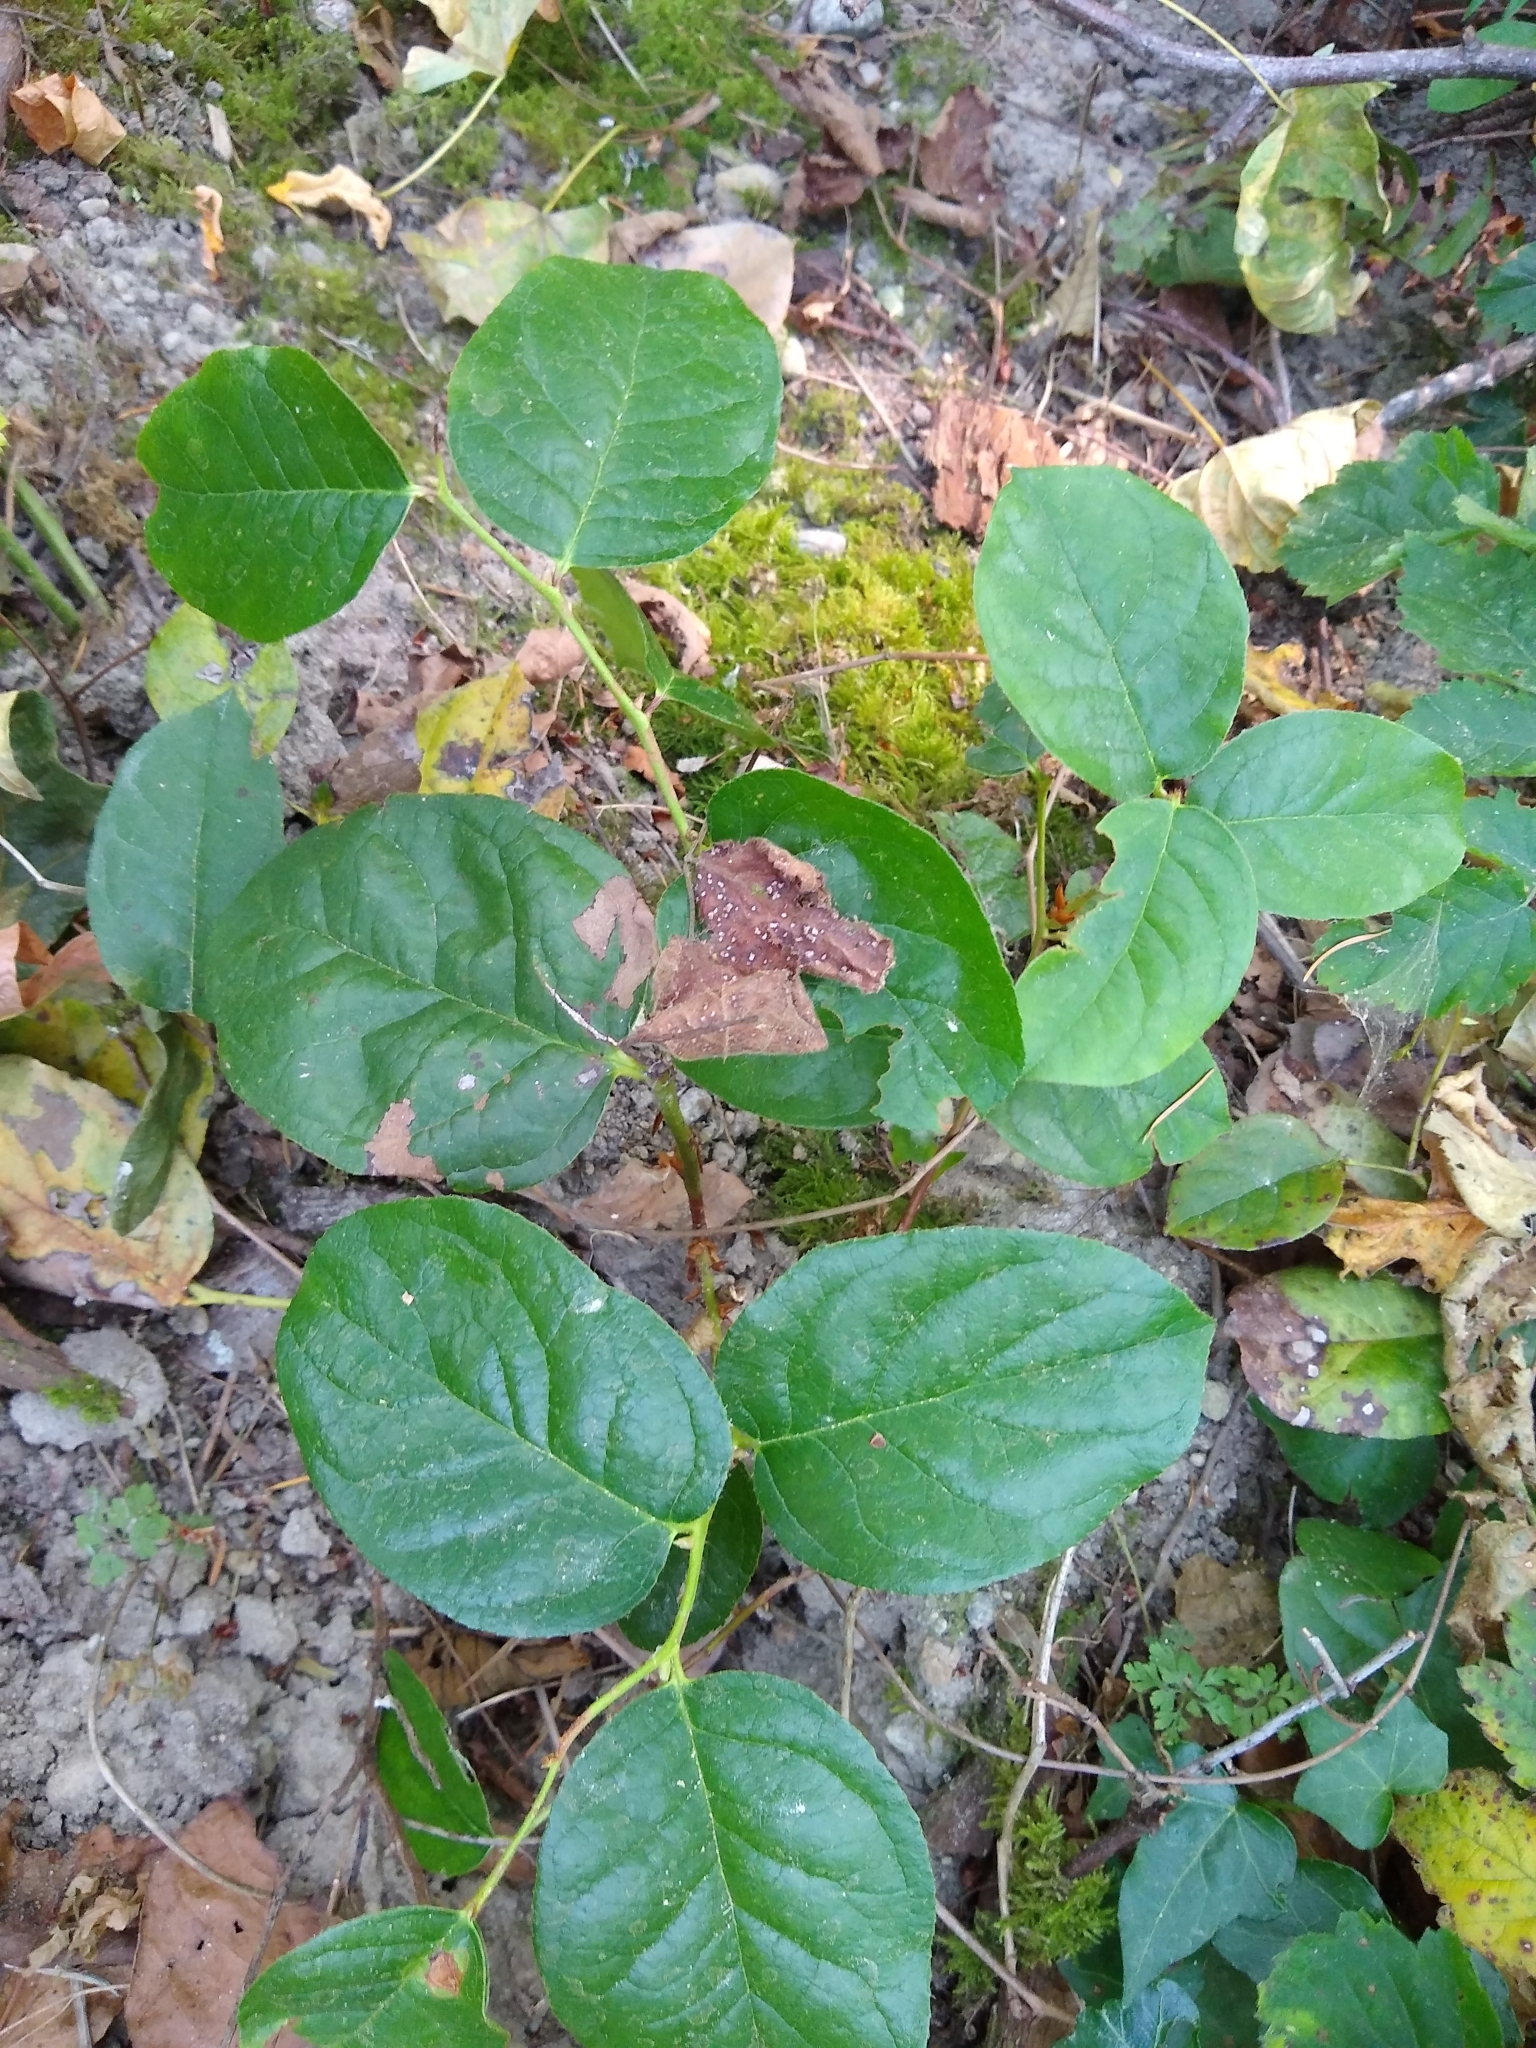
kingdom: Plantae
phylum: Tracheophyta
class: Magnoliopsida
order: Ericales
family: Ericaceae
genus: Gaultheria
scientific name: Gaultheria shallon
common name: Shallon
